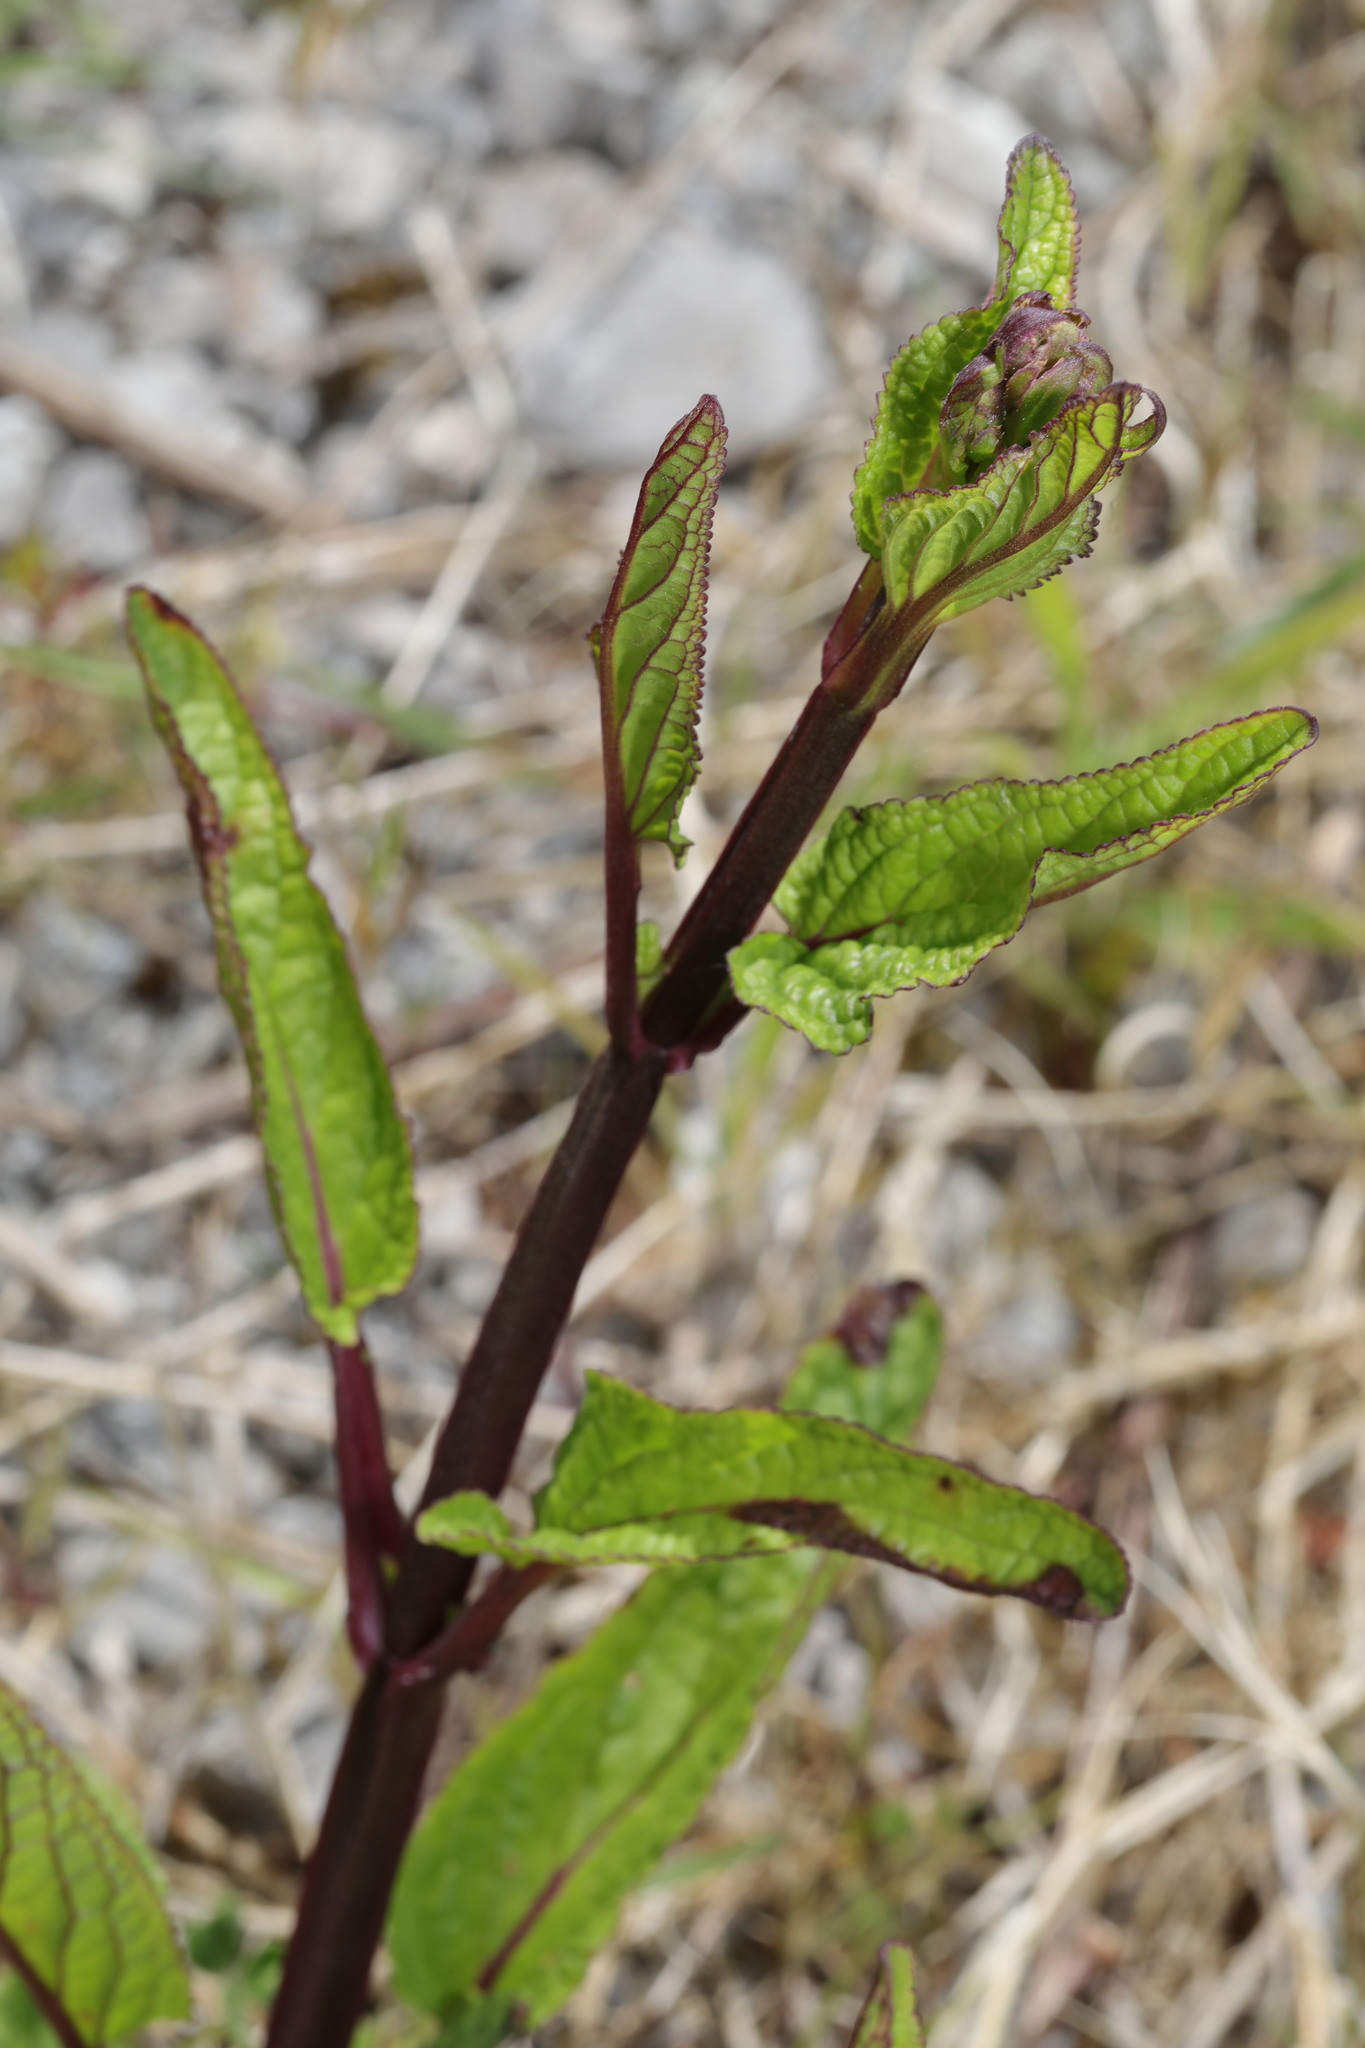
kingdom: Plantae
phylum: Tracheophyta
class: Magnoliopsida
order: Lamiales
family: Scrophulariaceae
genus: Scrophularia
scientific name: Scrophularia auriculata
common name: Water betony
